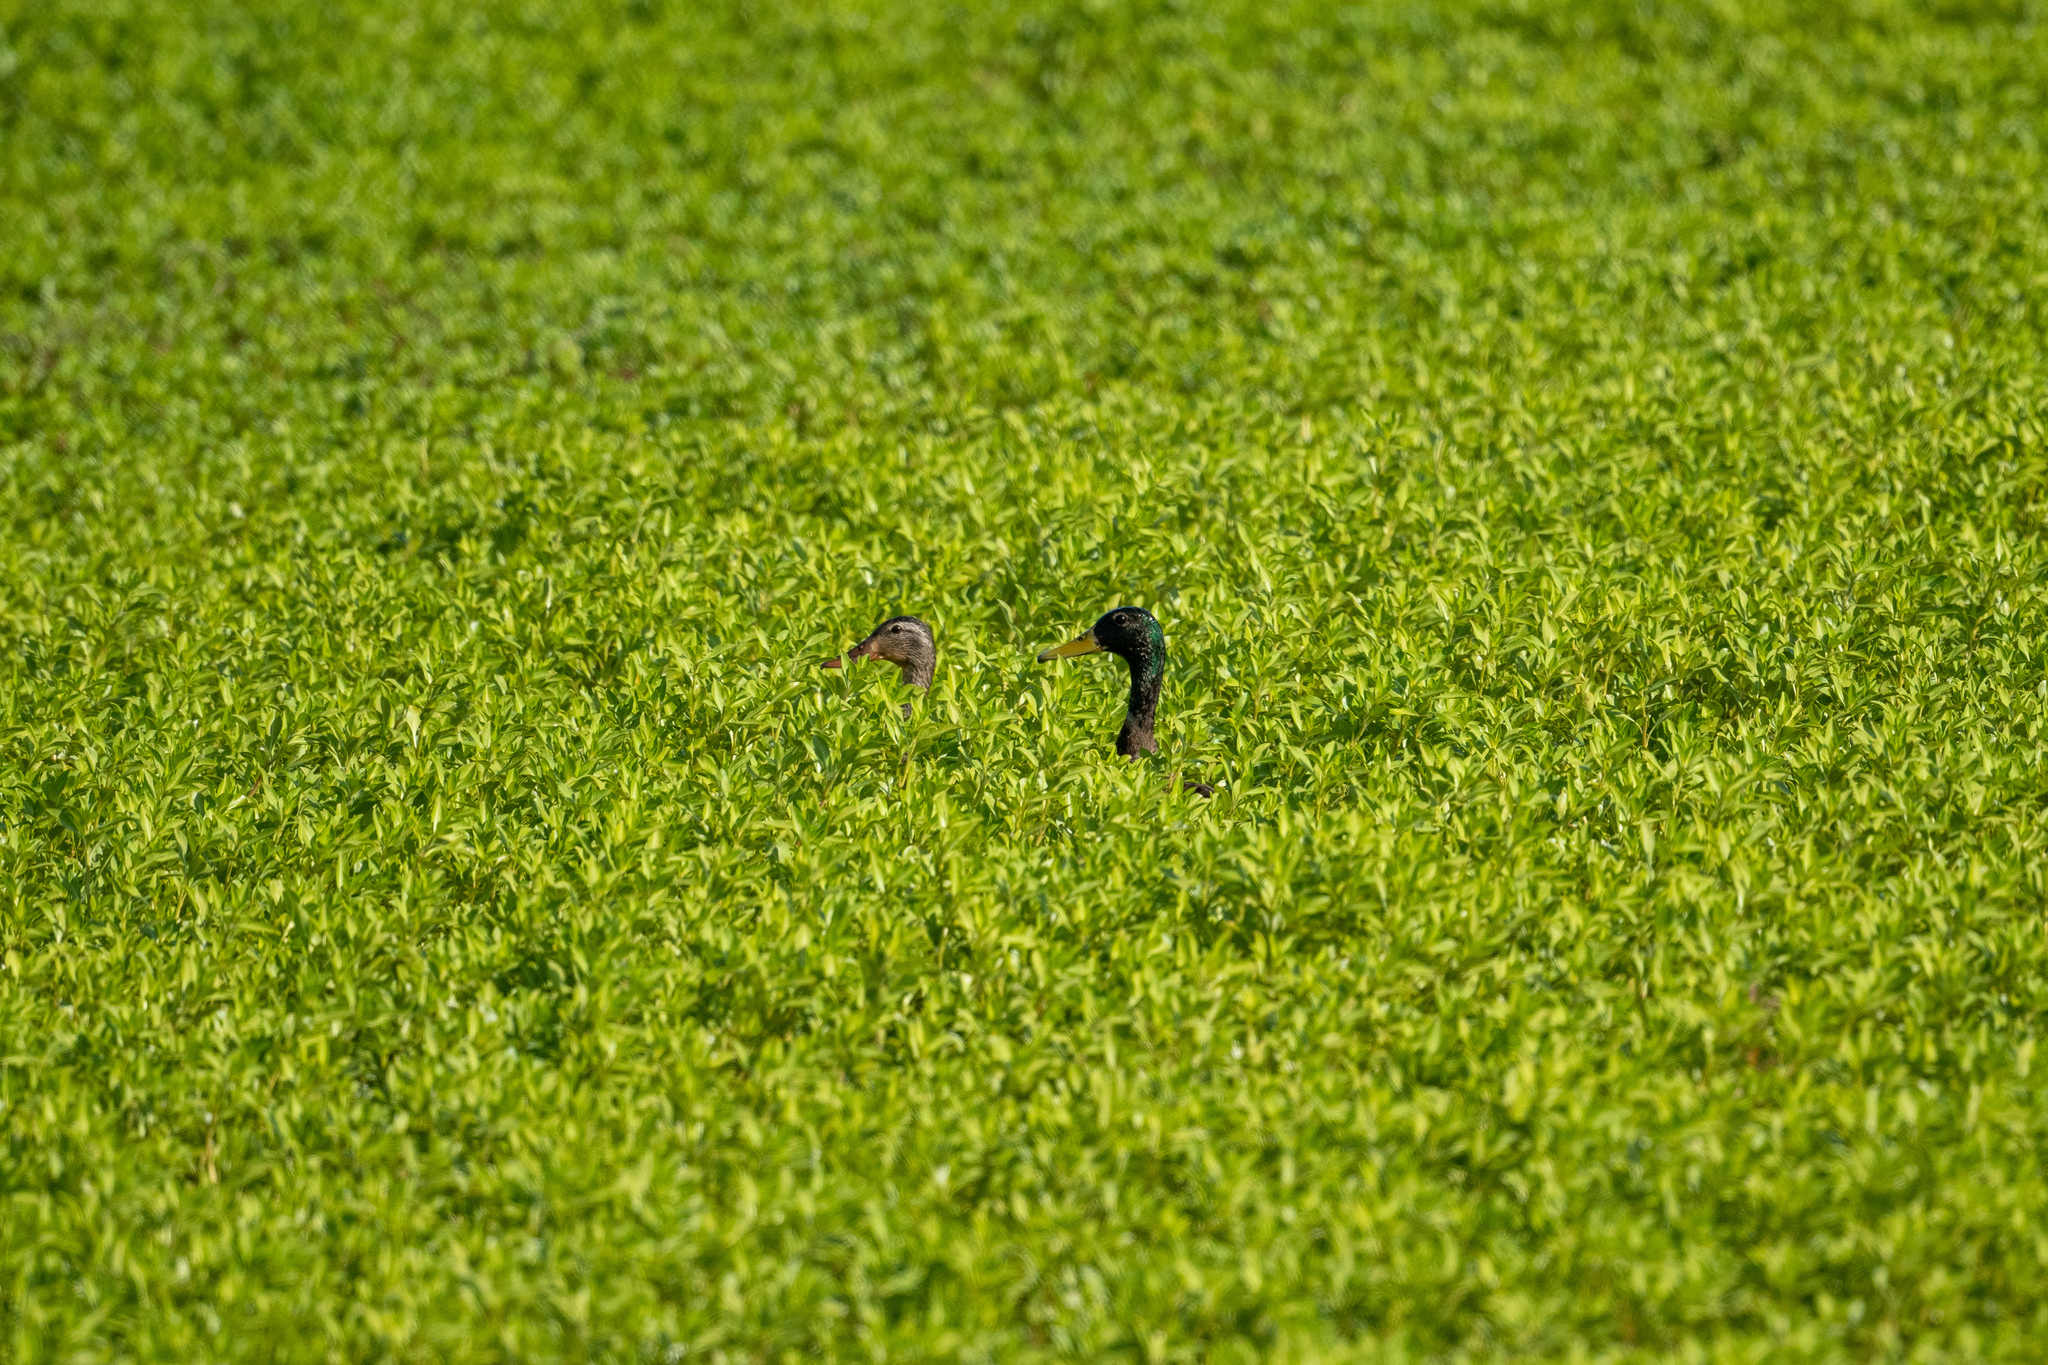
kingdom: Animalia
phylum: Chordata
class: Aves
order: Anseriformes
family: Anatidae
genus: Anas
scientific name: Anas platyrhynchos
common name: Mallard
